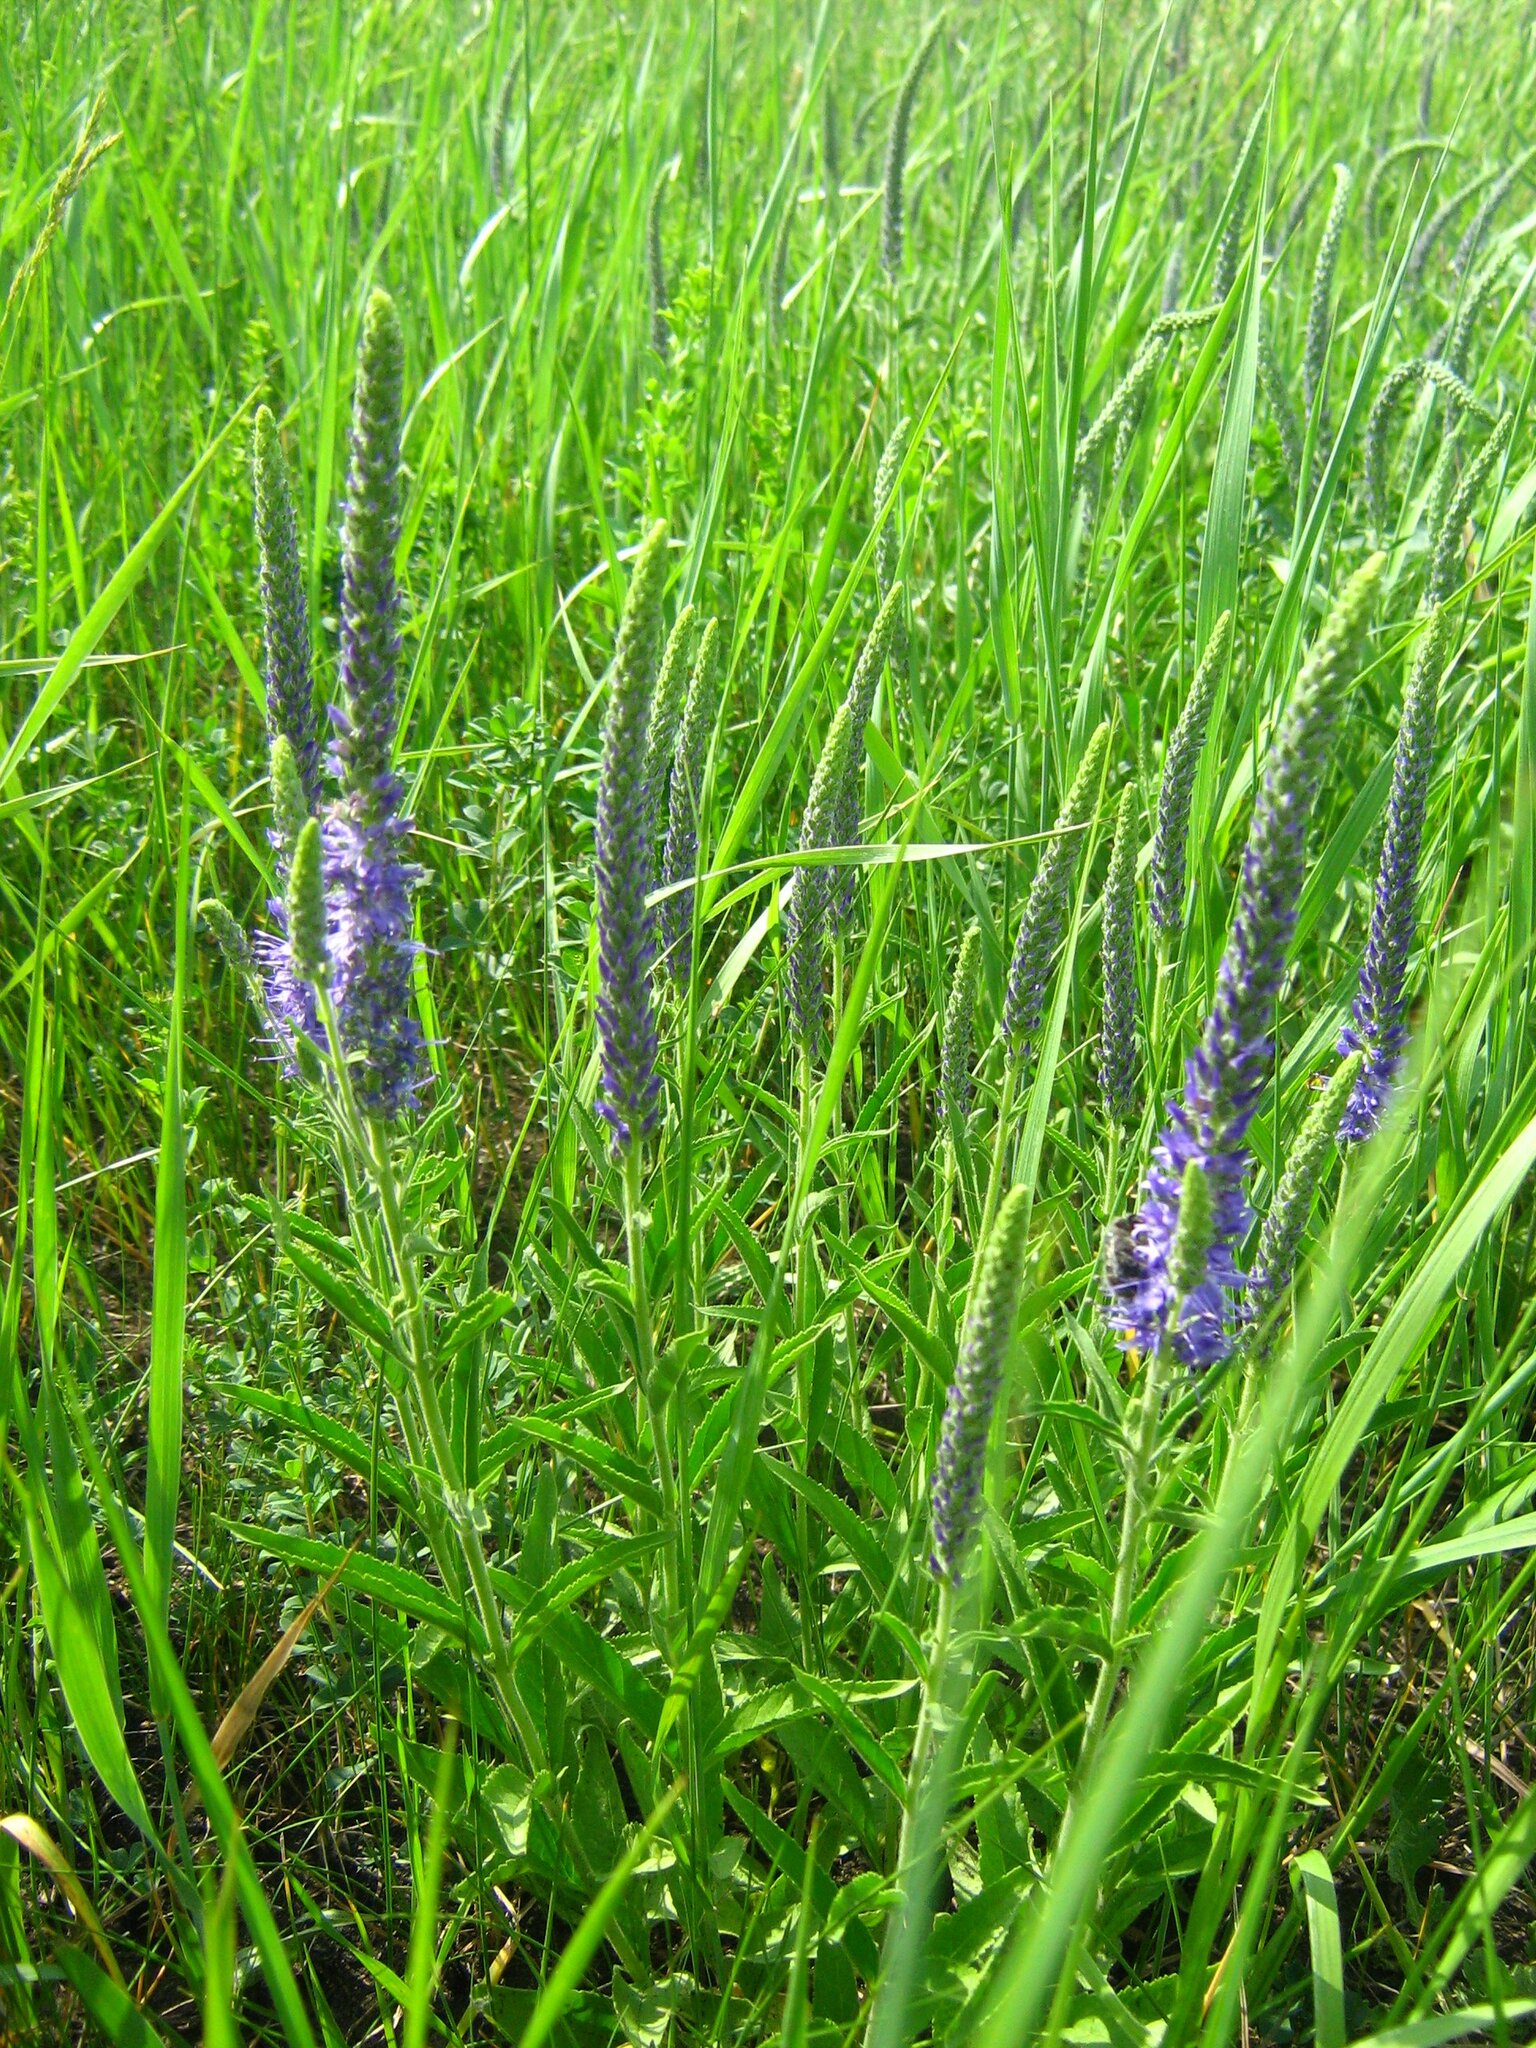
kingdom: Plantae
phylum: Tracheophyta
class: Magnoliopsida
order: Lamiales
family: Plantaginaceae
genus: Veronica
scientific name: Veronica barrelieri
